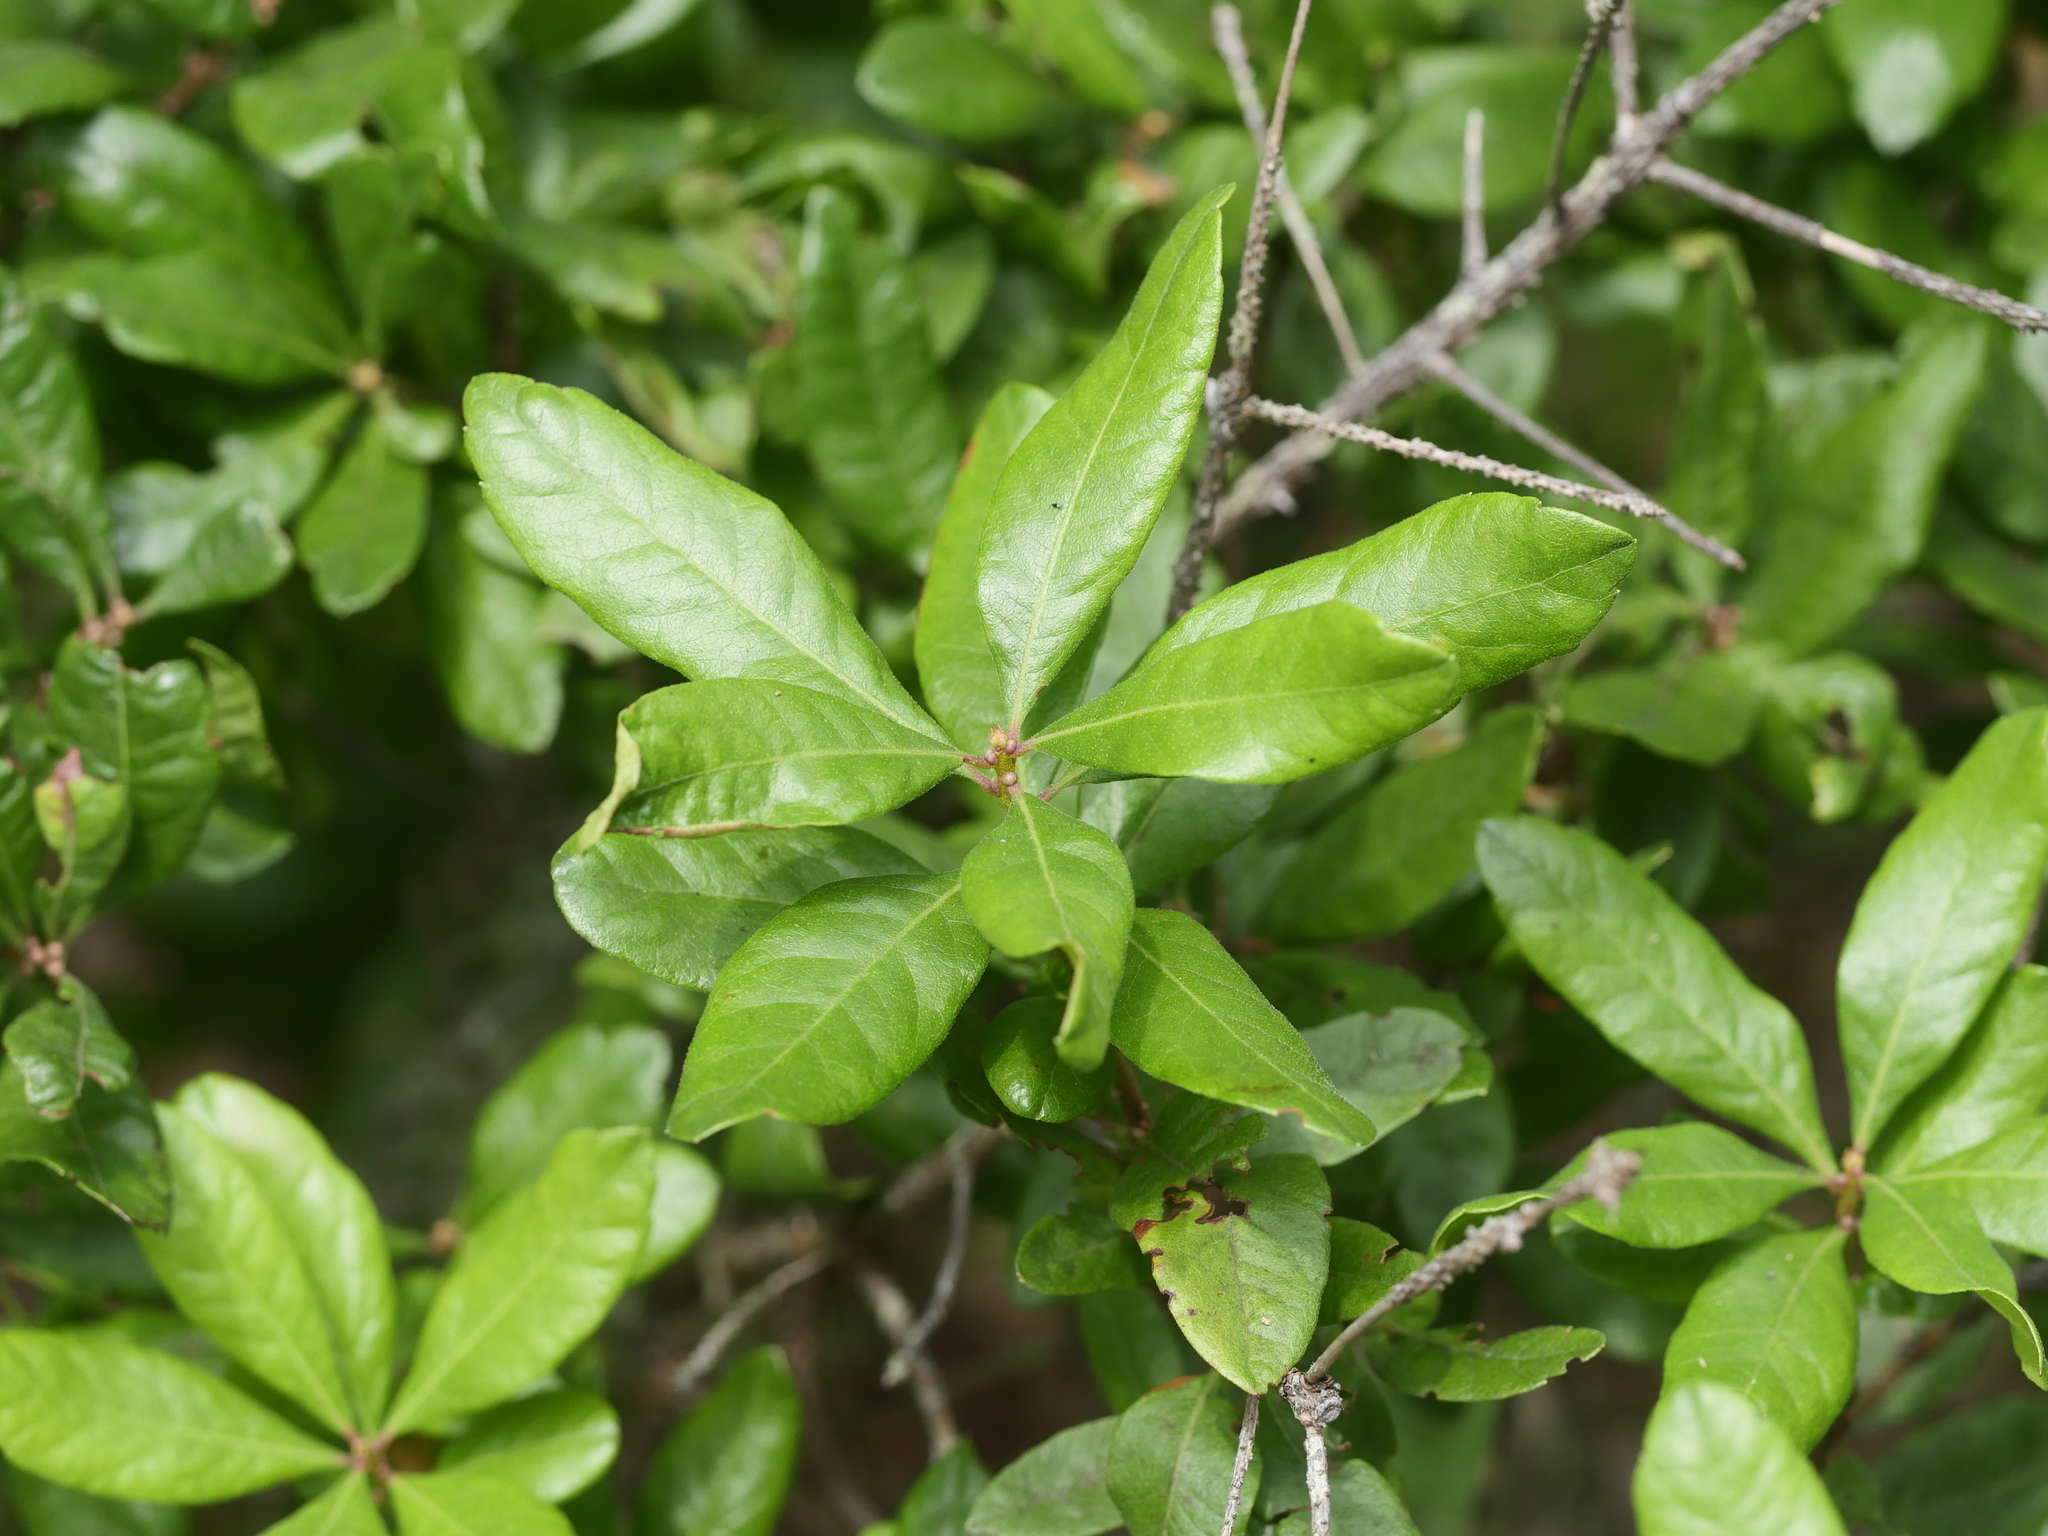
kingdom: Plantae
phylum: Tracheophyta
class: Magnoliopsida
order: Fagales
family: Myricaceae
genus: Morella
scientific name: Morella pensylvanica
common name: Northern bayberry
